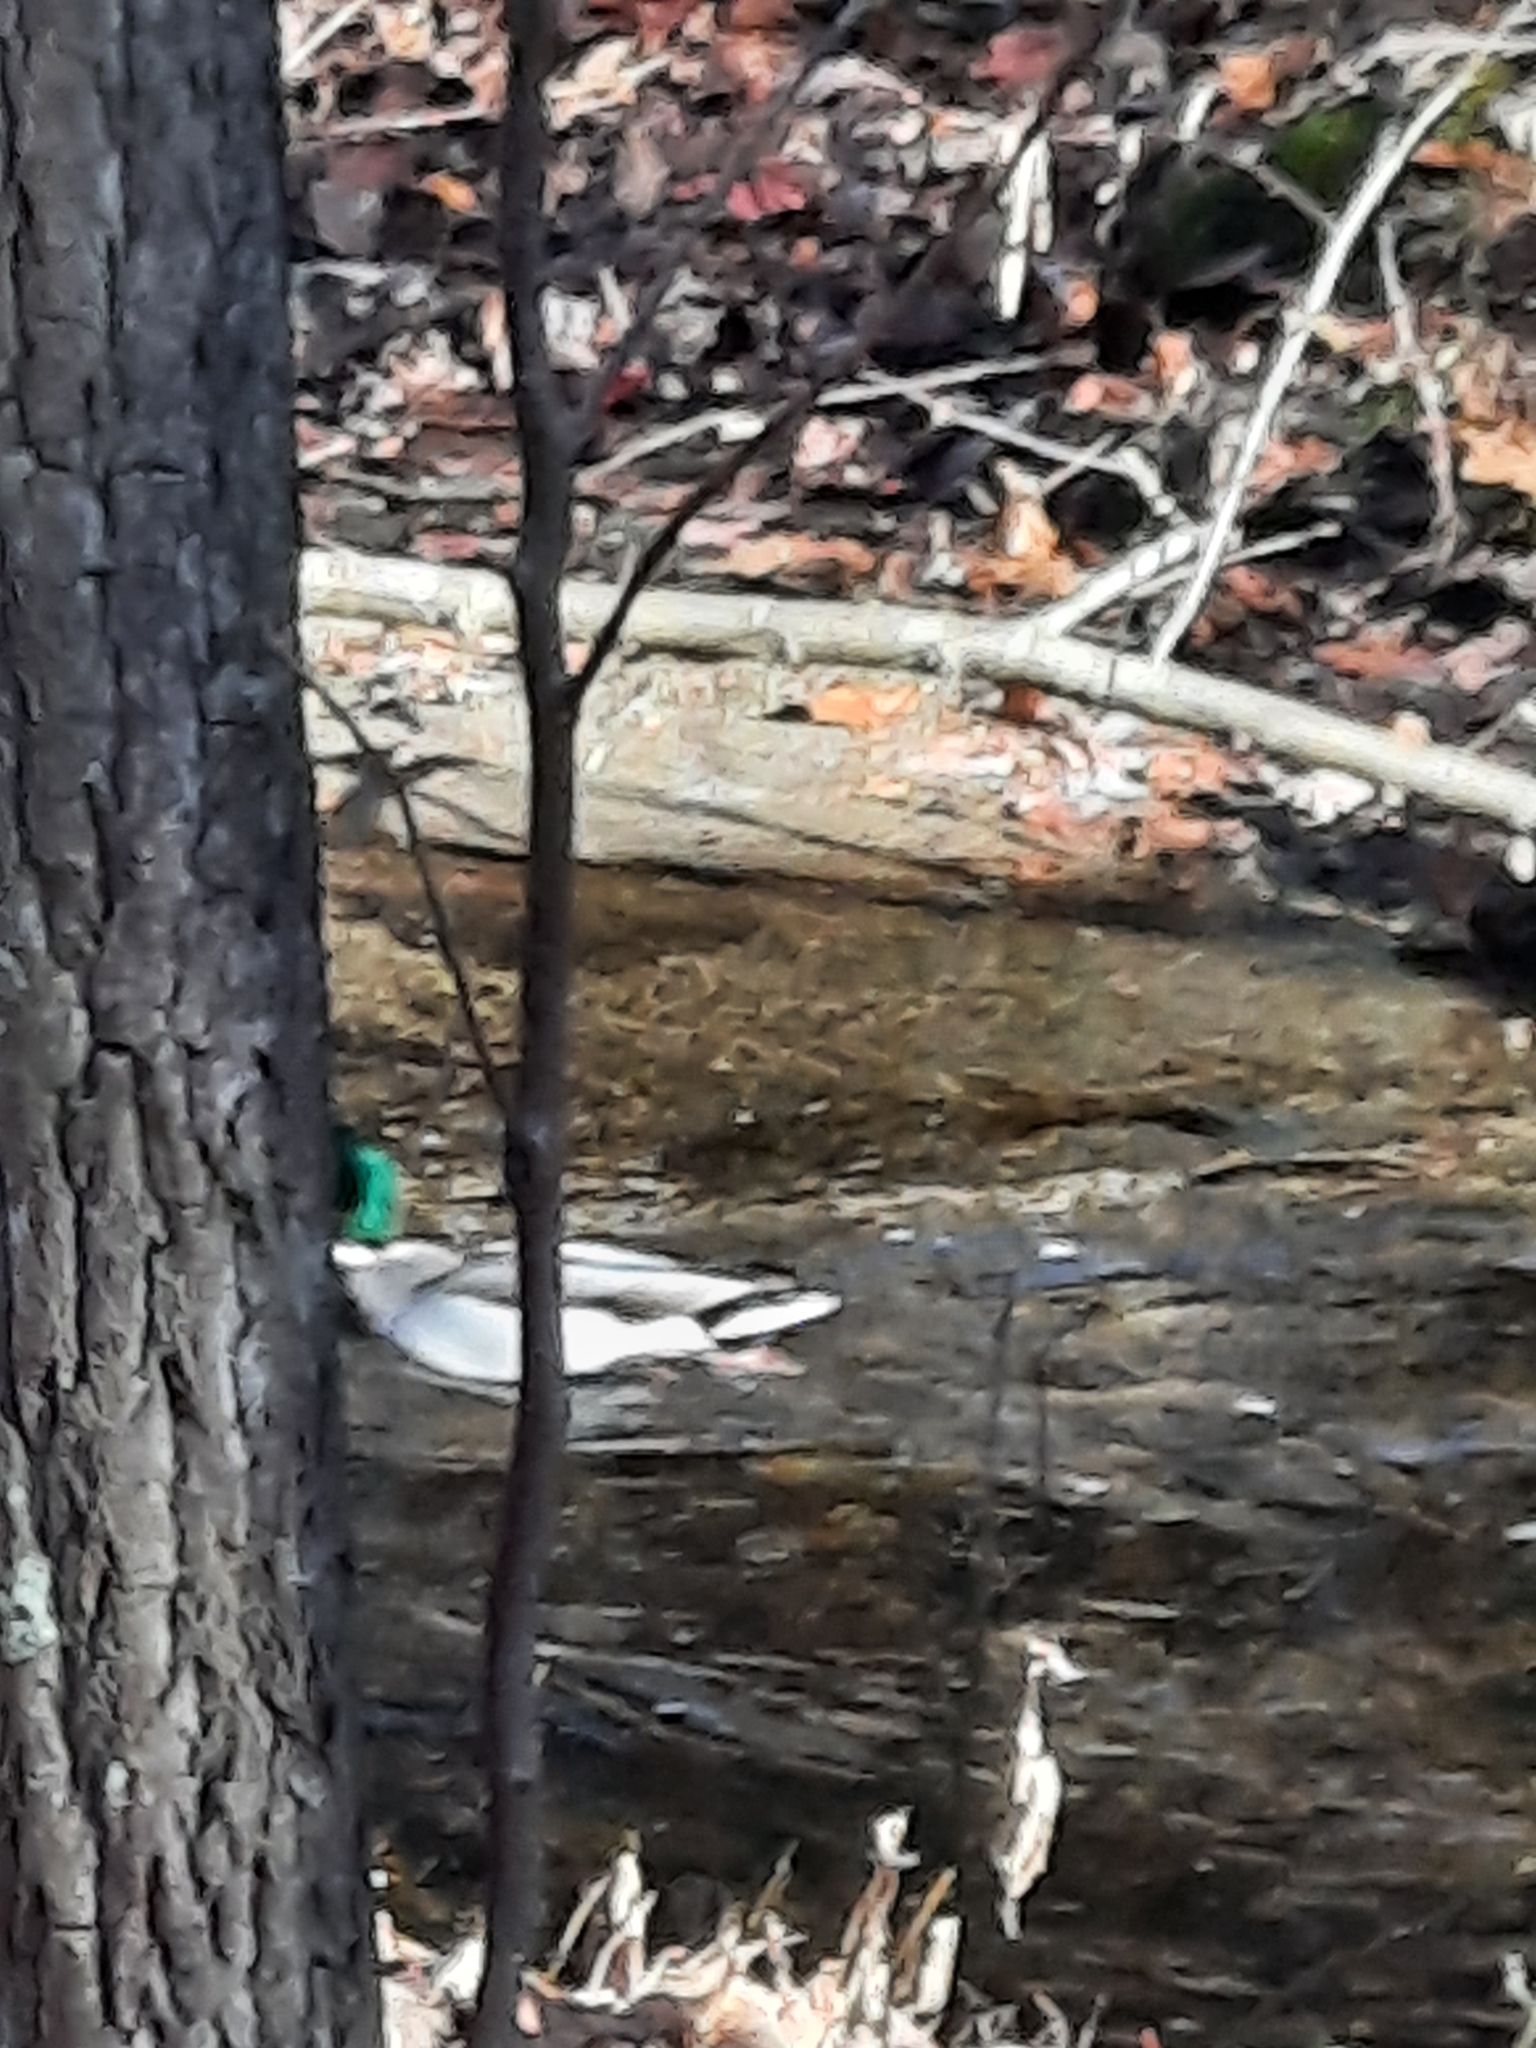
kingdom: Animalia
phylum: Chordata
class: Aves
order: Anseriformes
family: Anatidae
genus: Anas
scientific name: Anas platyrhynchos
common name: Mallard
